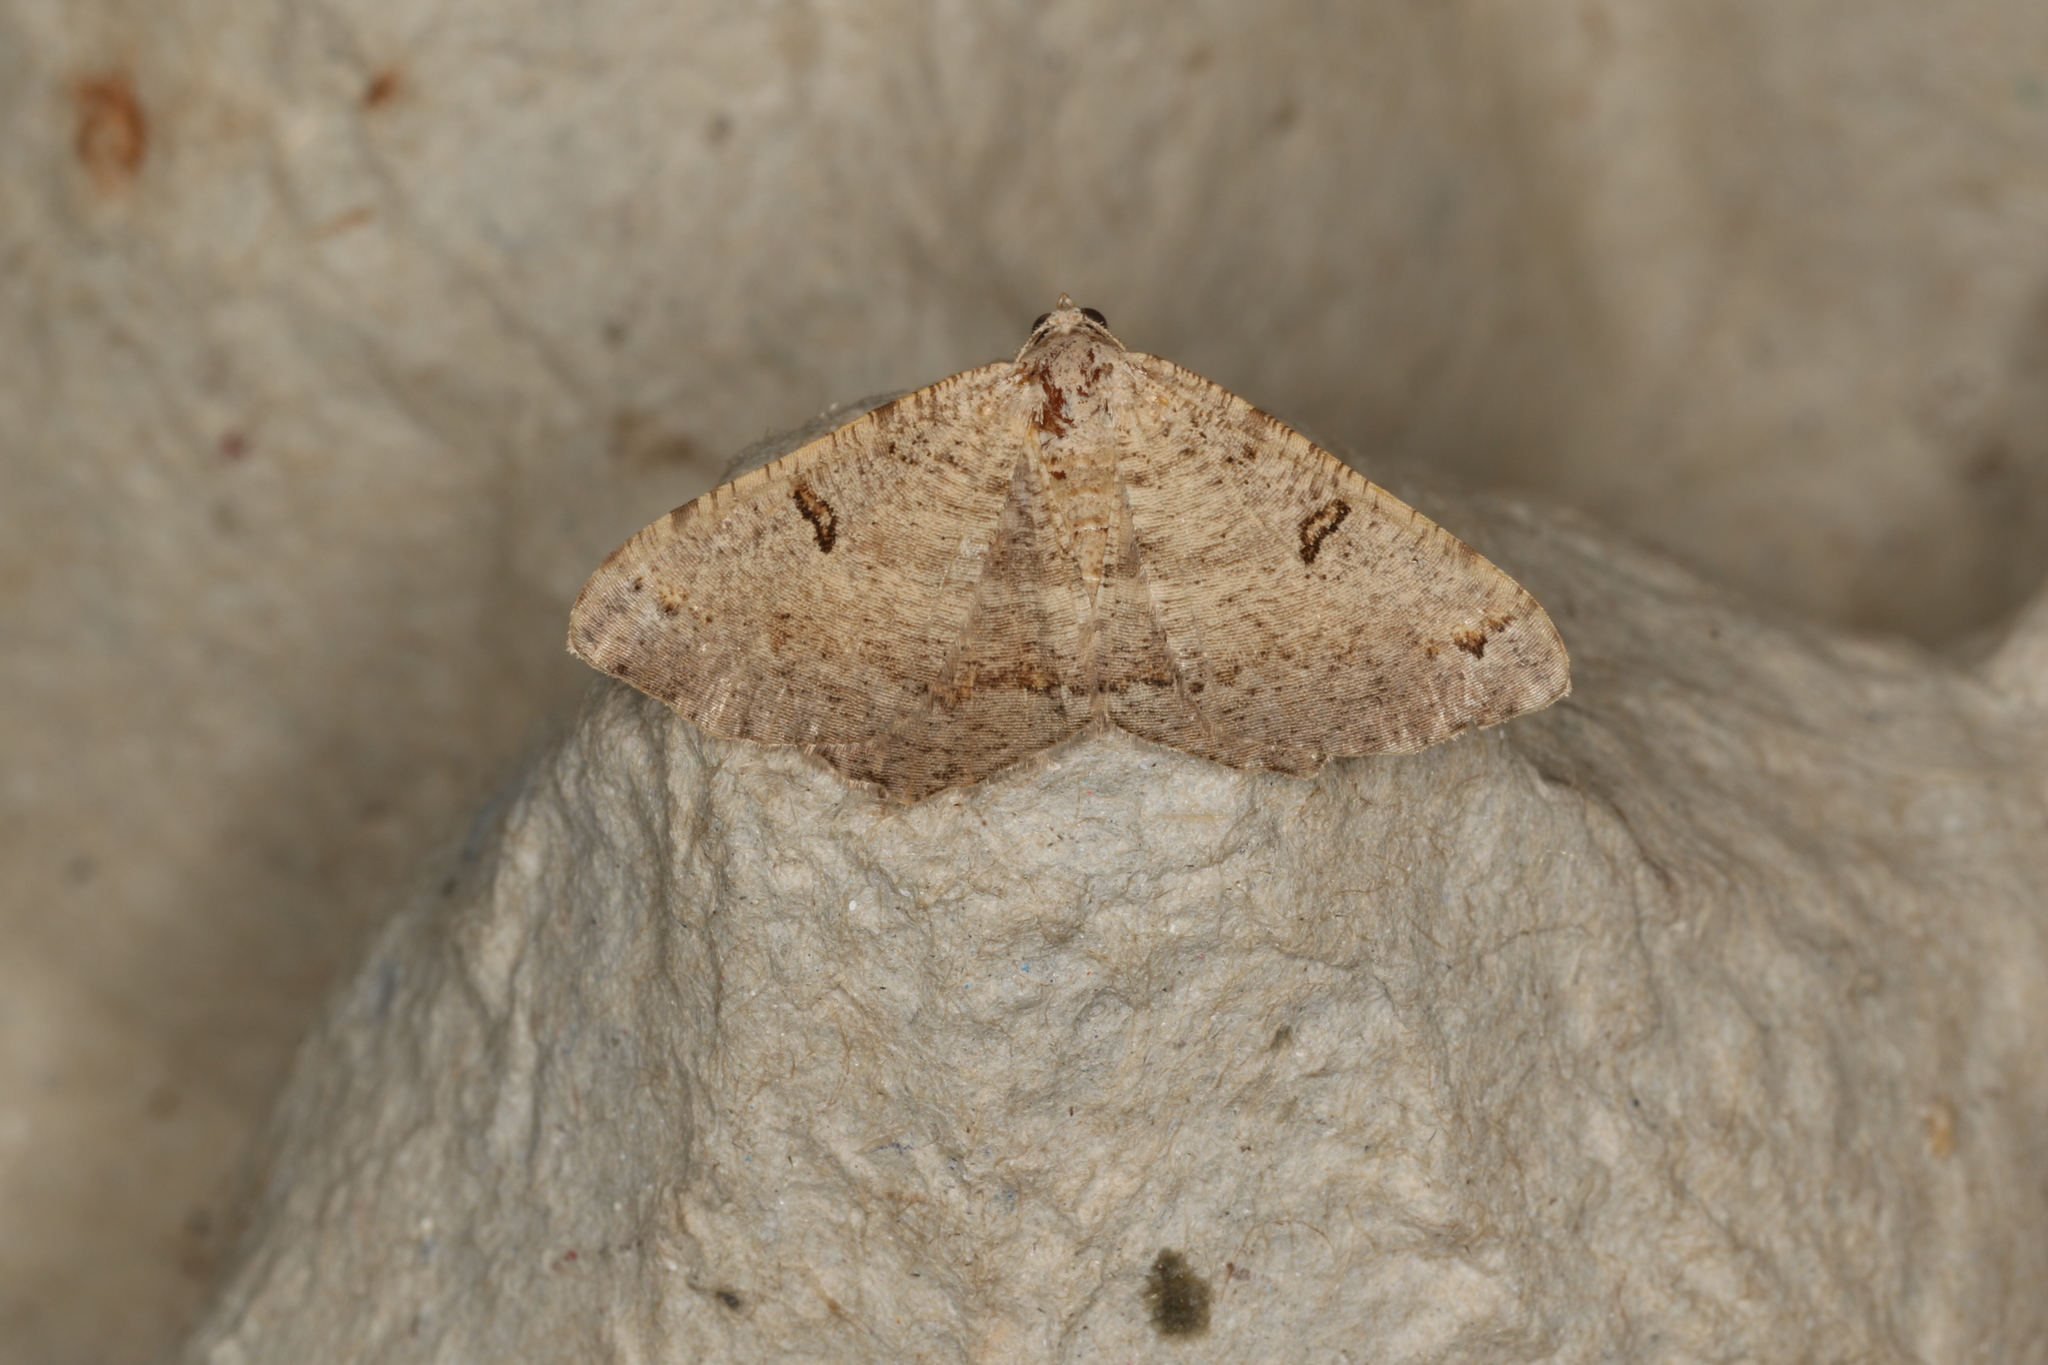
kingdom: Animalia
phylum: Arthropoda
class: Insecta
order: Lepidoptera
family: Geometridae
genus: Dissomorphia
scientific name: Dissomorphia australiaria
